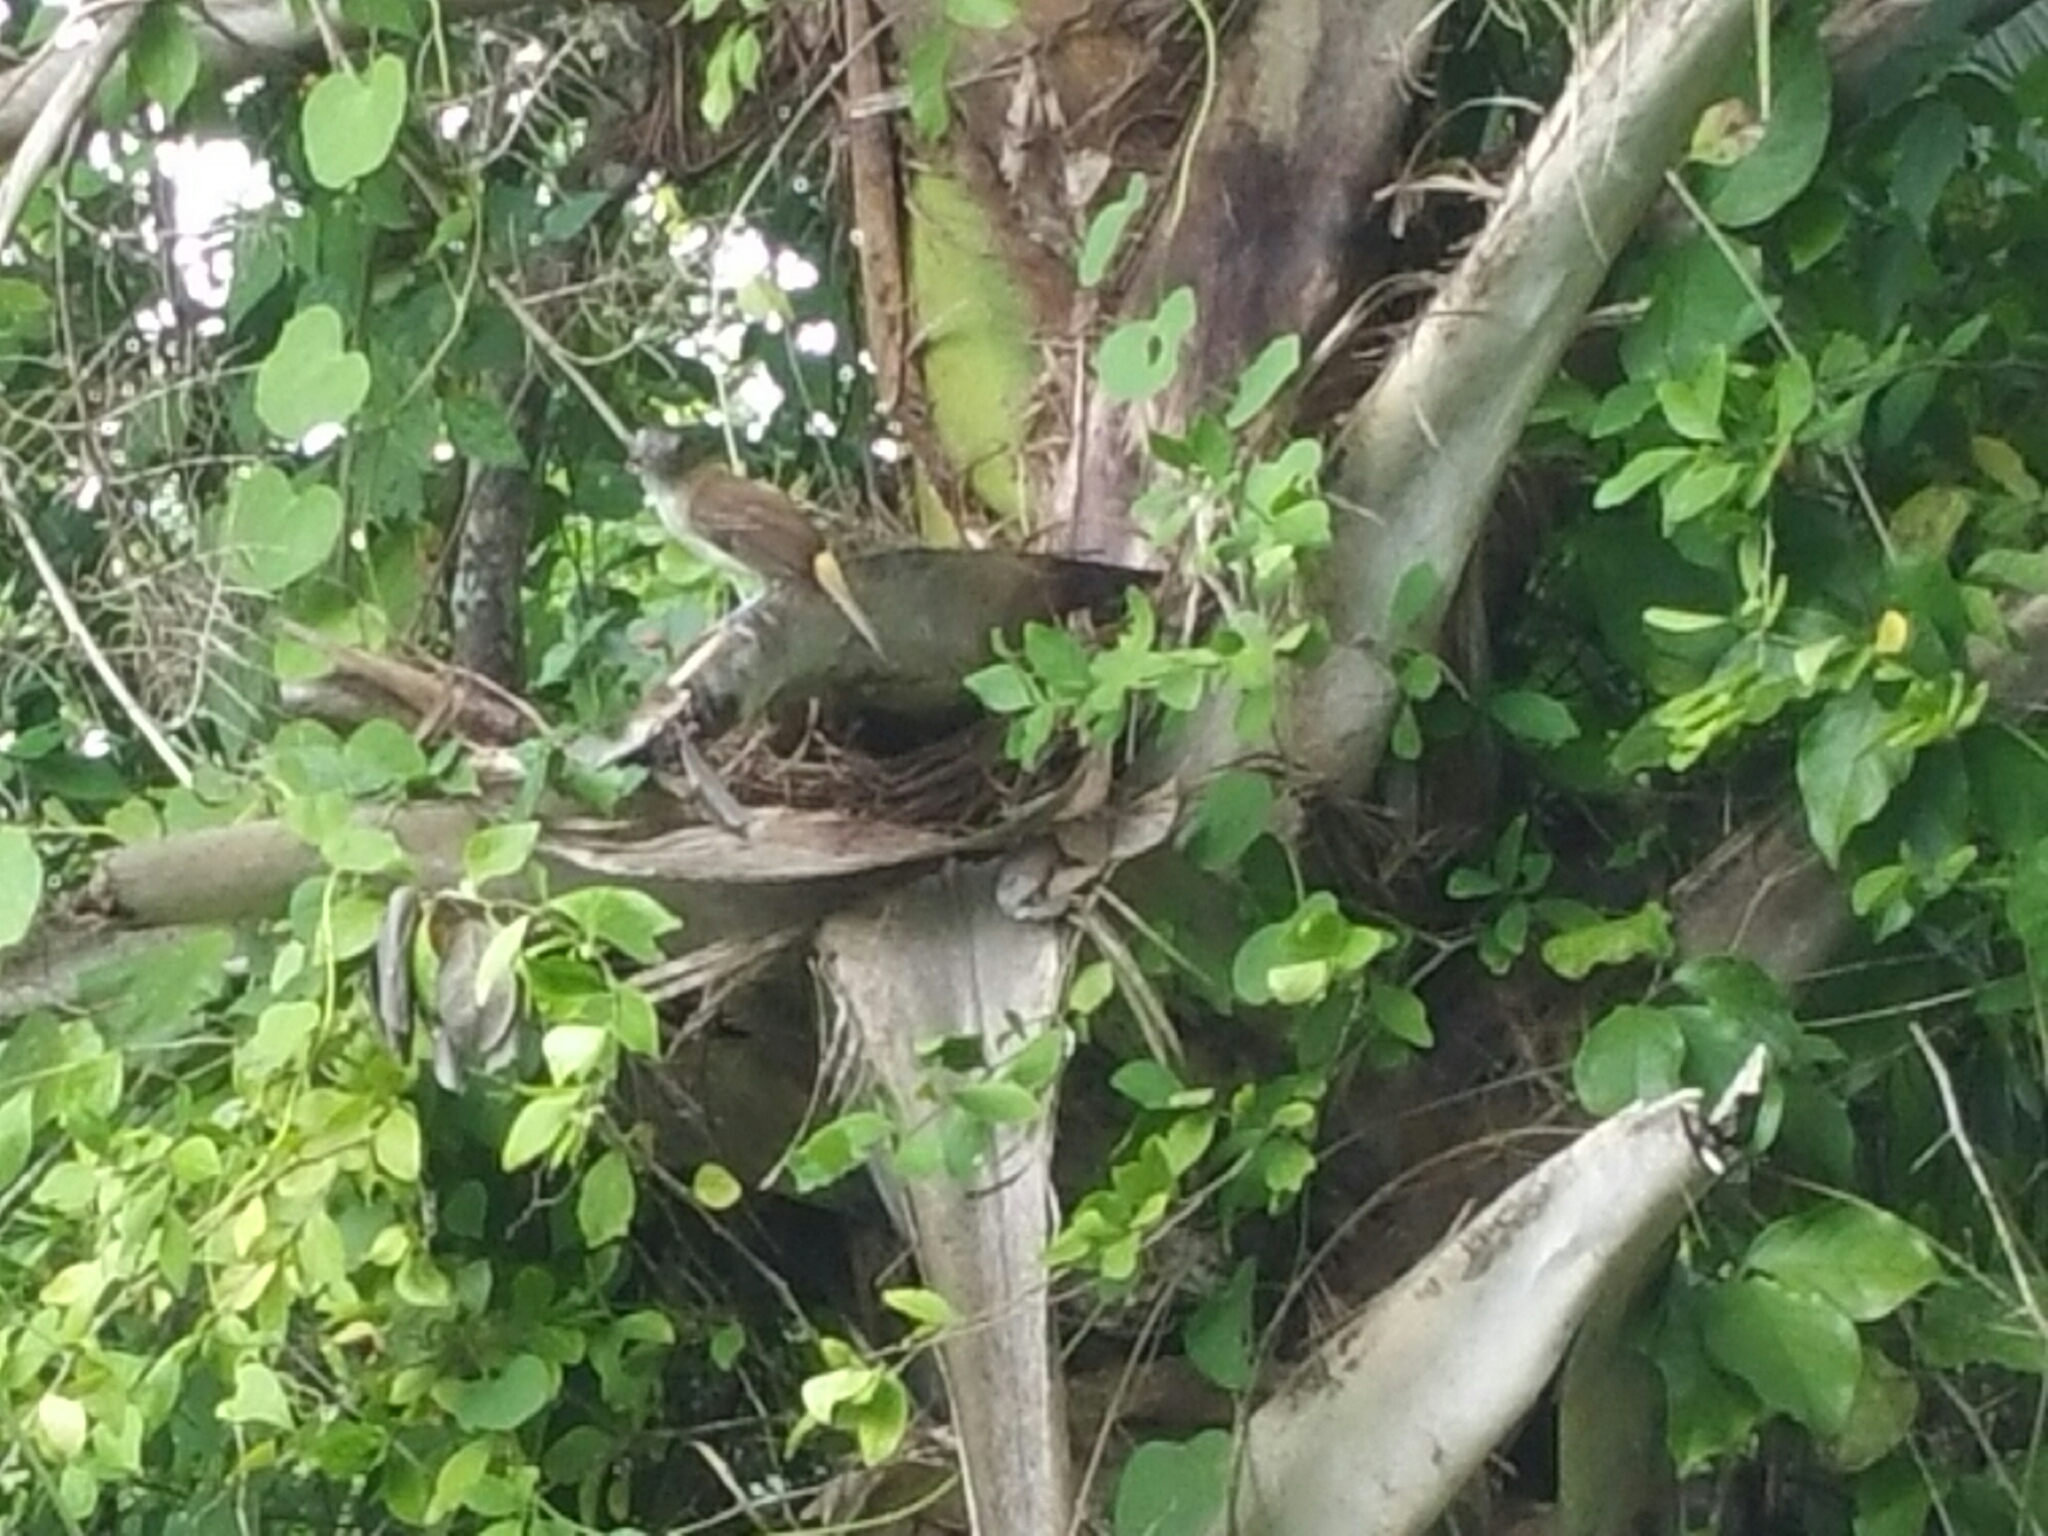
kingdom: Animalia
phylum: Chordata
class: Aves
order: Passeriformes
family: Tyrannidae
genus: Attila
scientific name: Attila spadiceus
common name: Bright-rumped attila
